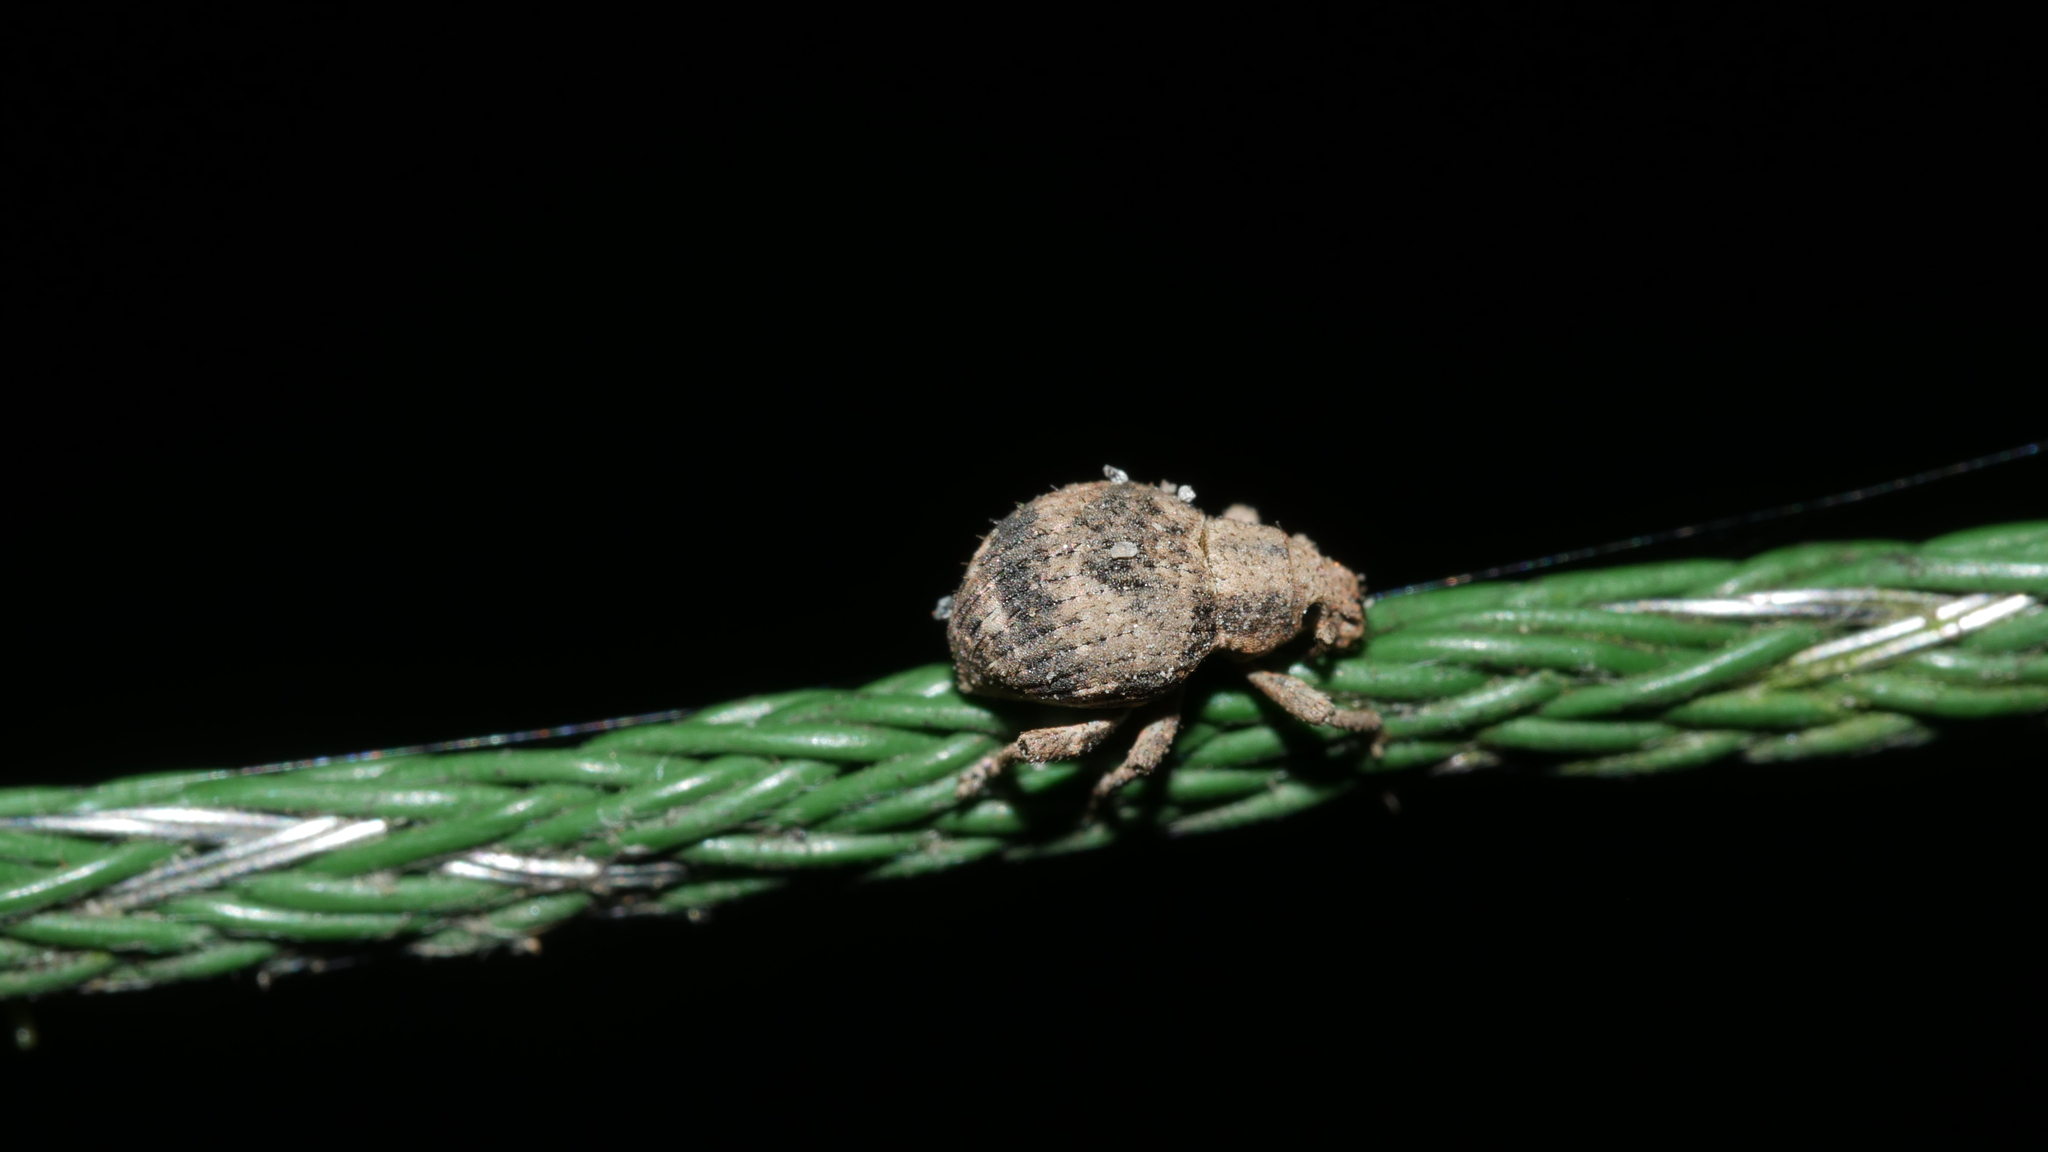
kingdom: Animalia
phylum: Arthropoda
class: Insecta
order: Coleoptera
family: Curculionidae
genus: Pseudocneorhinus
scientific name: Pseudocneorhinus bifasciatus
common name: Two-banded japanese weevil
